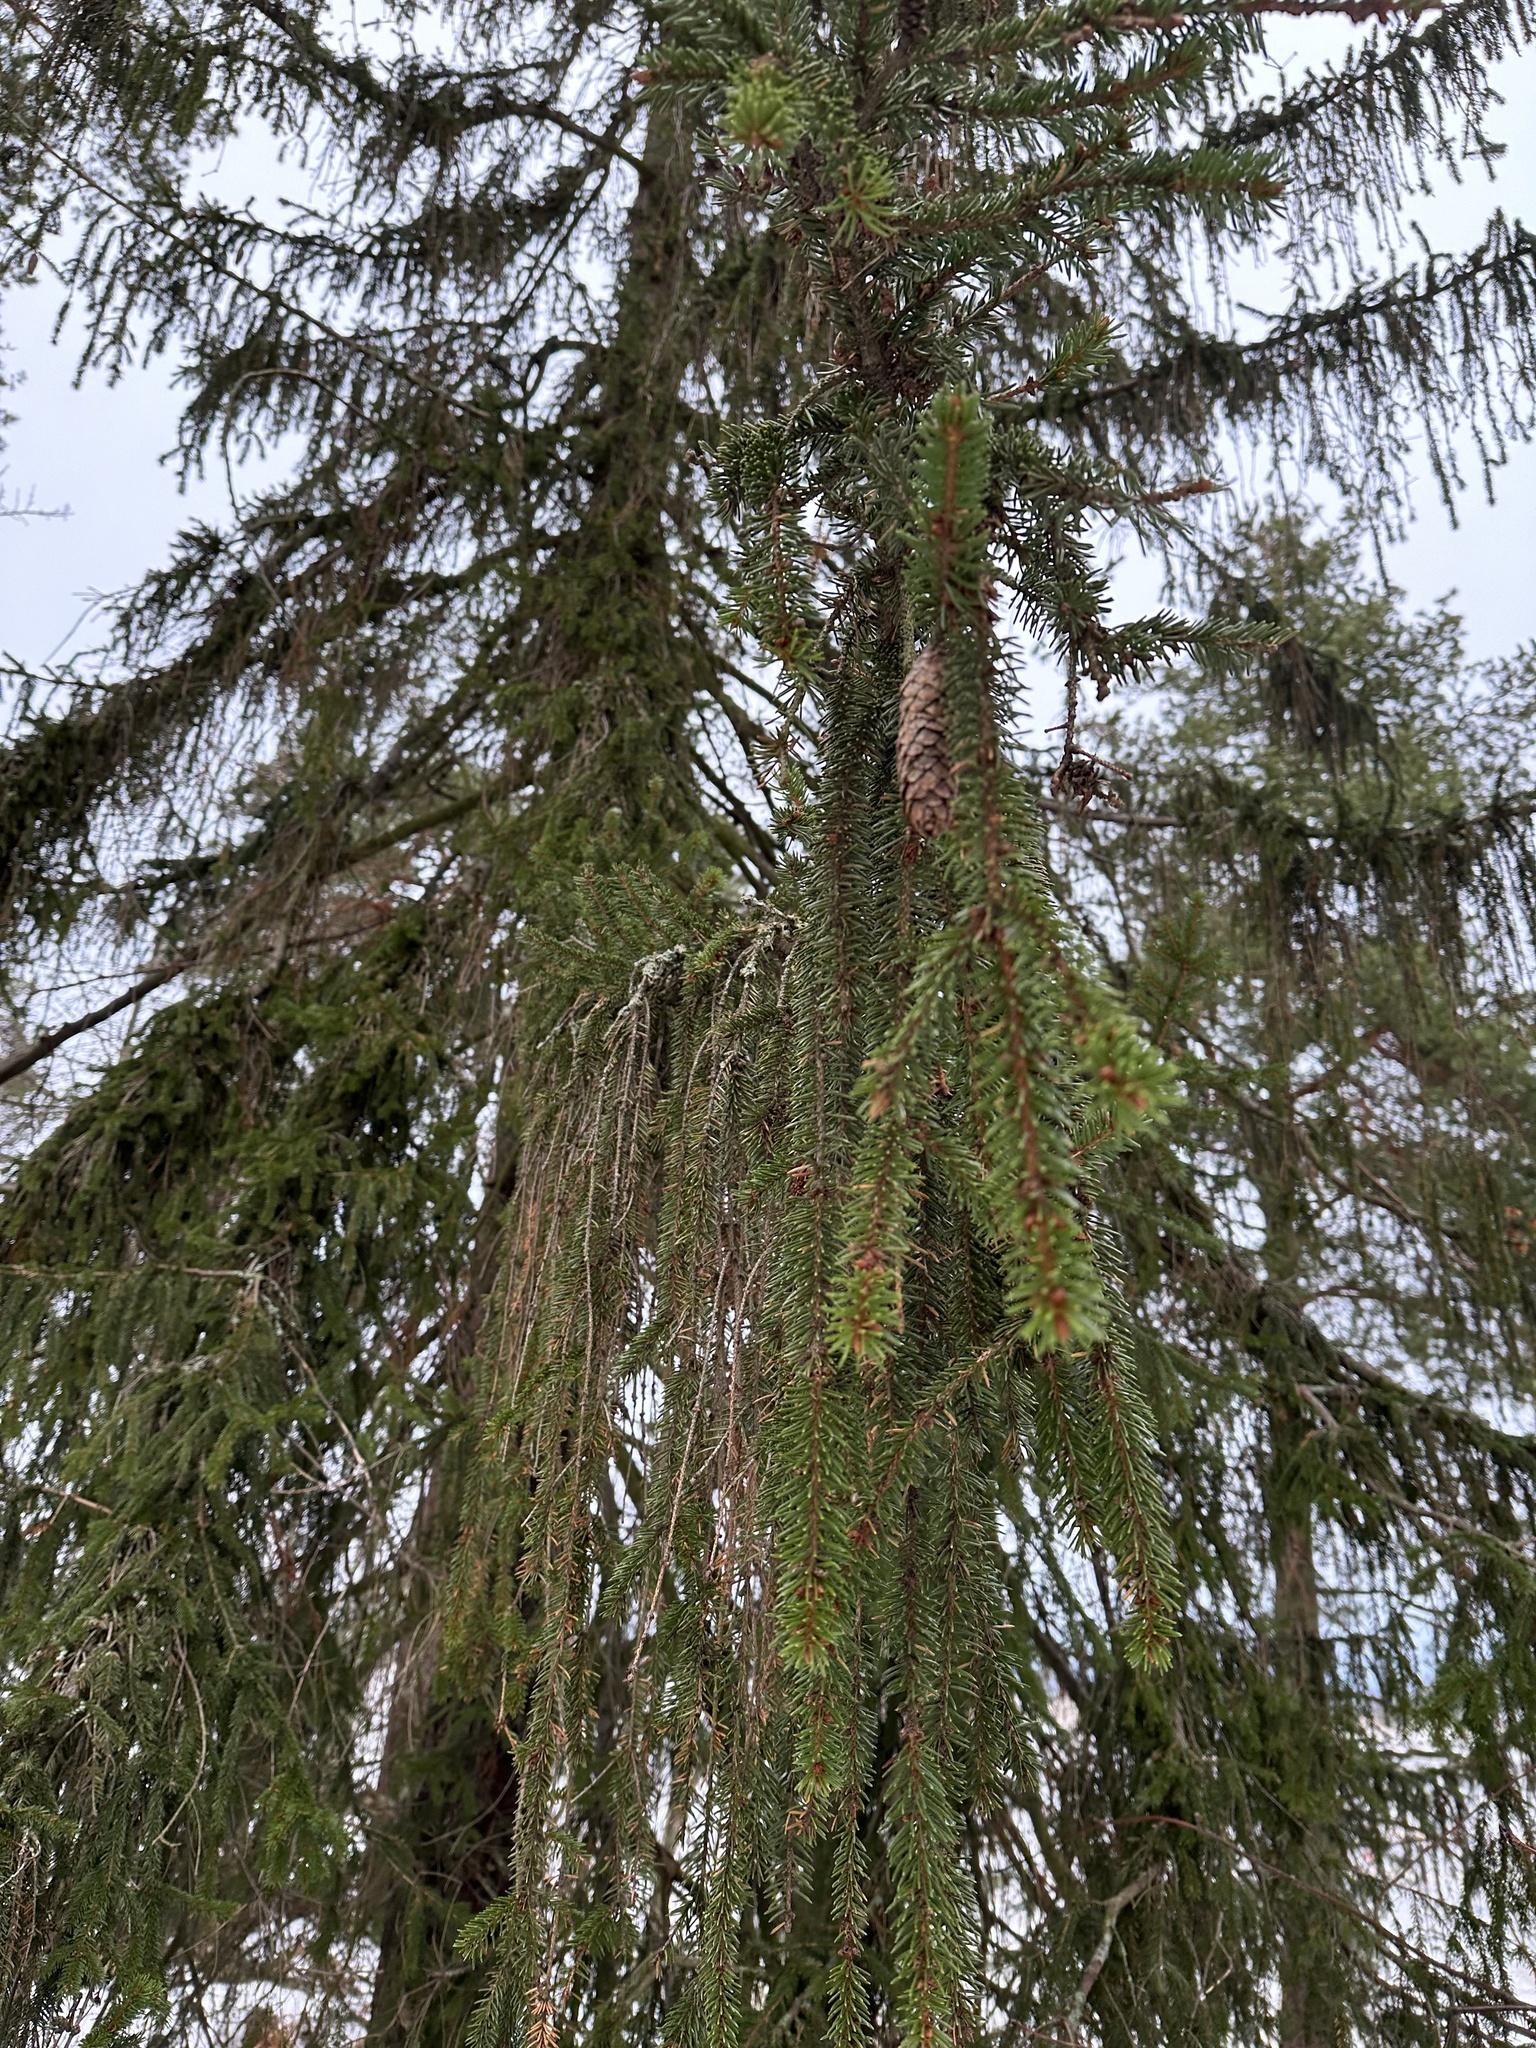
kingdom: Plantae
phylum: Tracheophyta
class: Pinopsida
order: Pinales
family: Pinaceae
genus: Picea
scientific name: Picea abies
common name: Norway spruce
